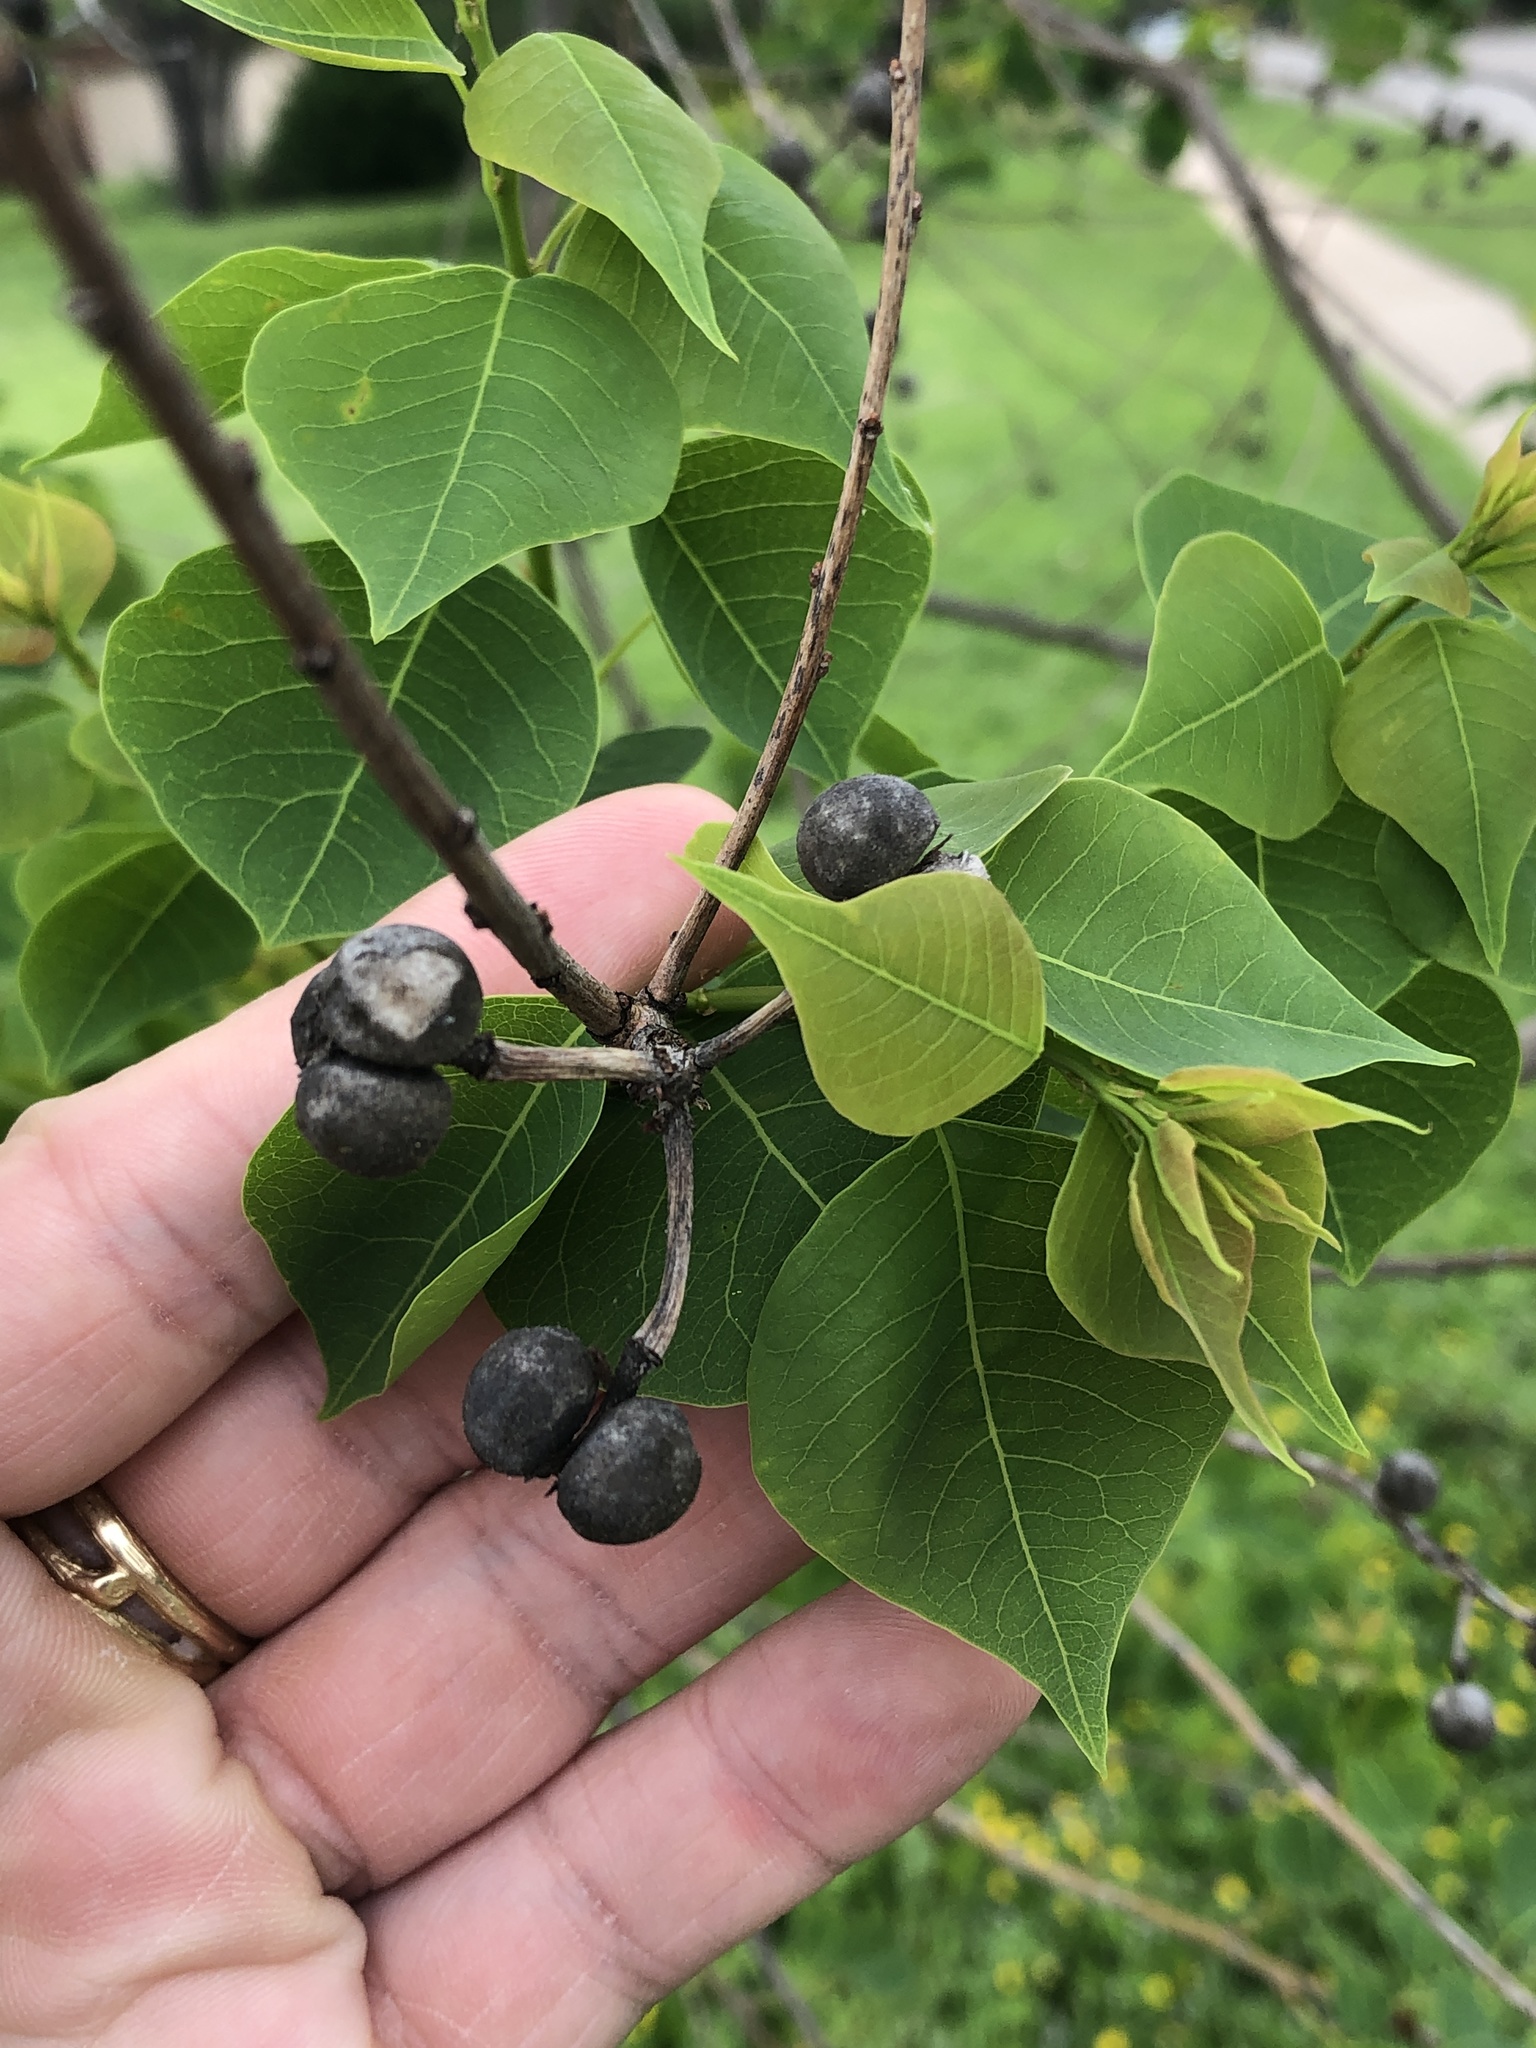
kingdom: Plantae
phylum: Tracheophyta
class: Magnoliopsida
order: Malpighiales
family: Euphorbiaceae
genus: Triadica
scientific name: Triadica sebifera
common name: Chinese tallow
